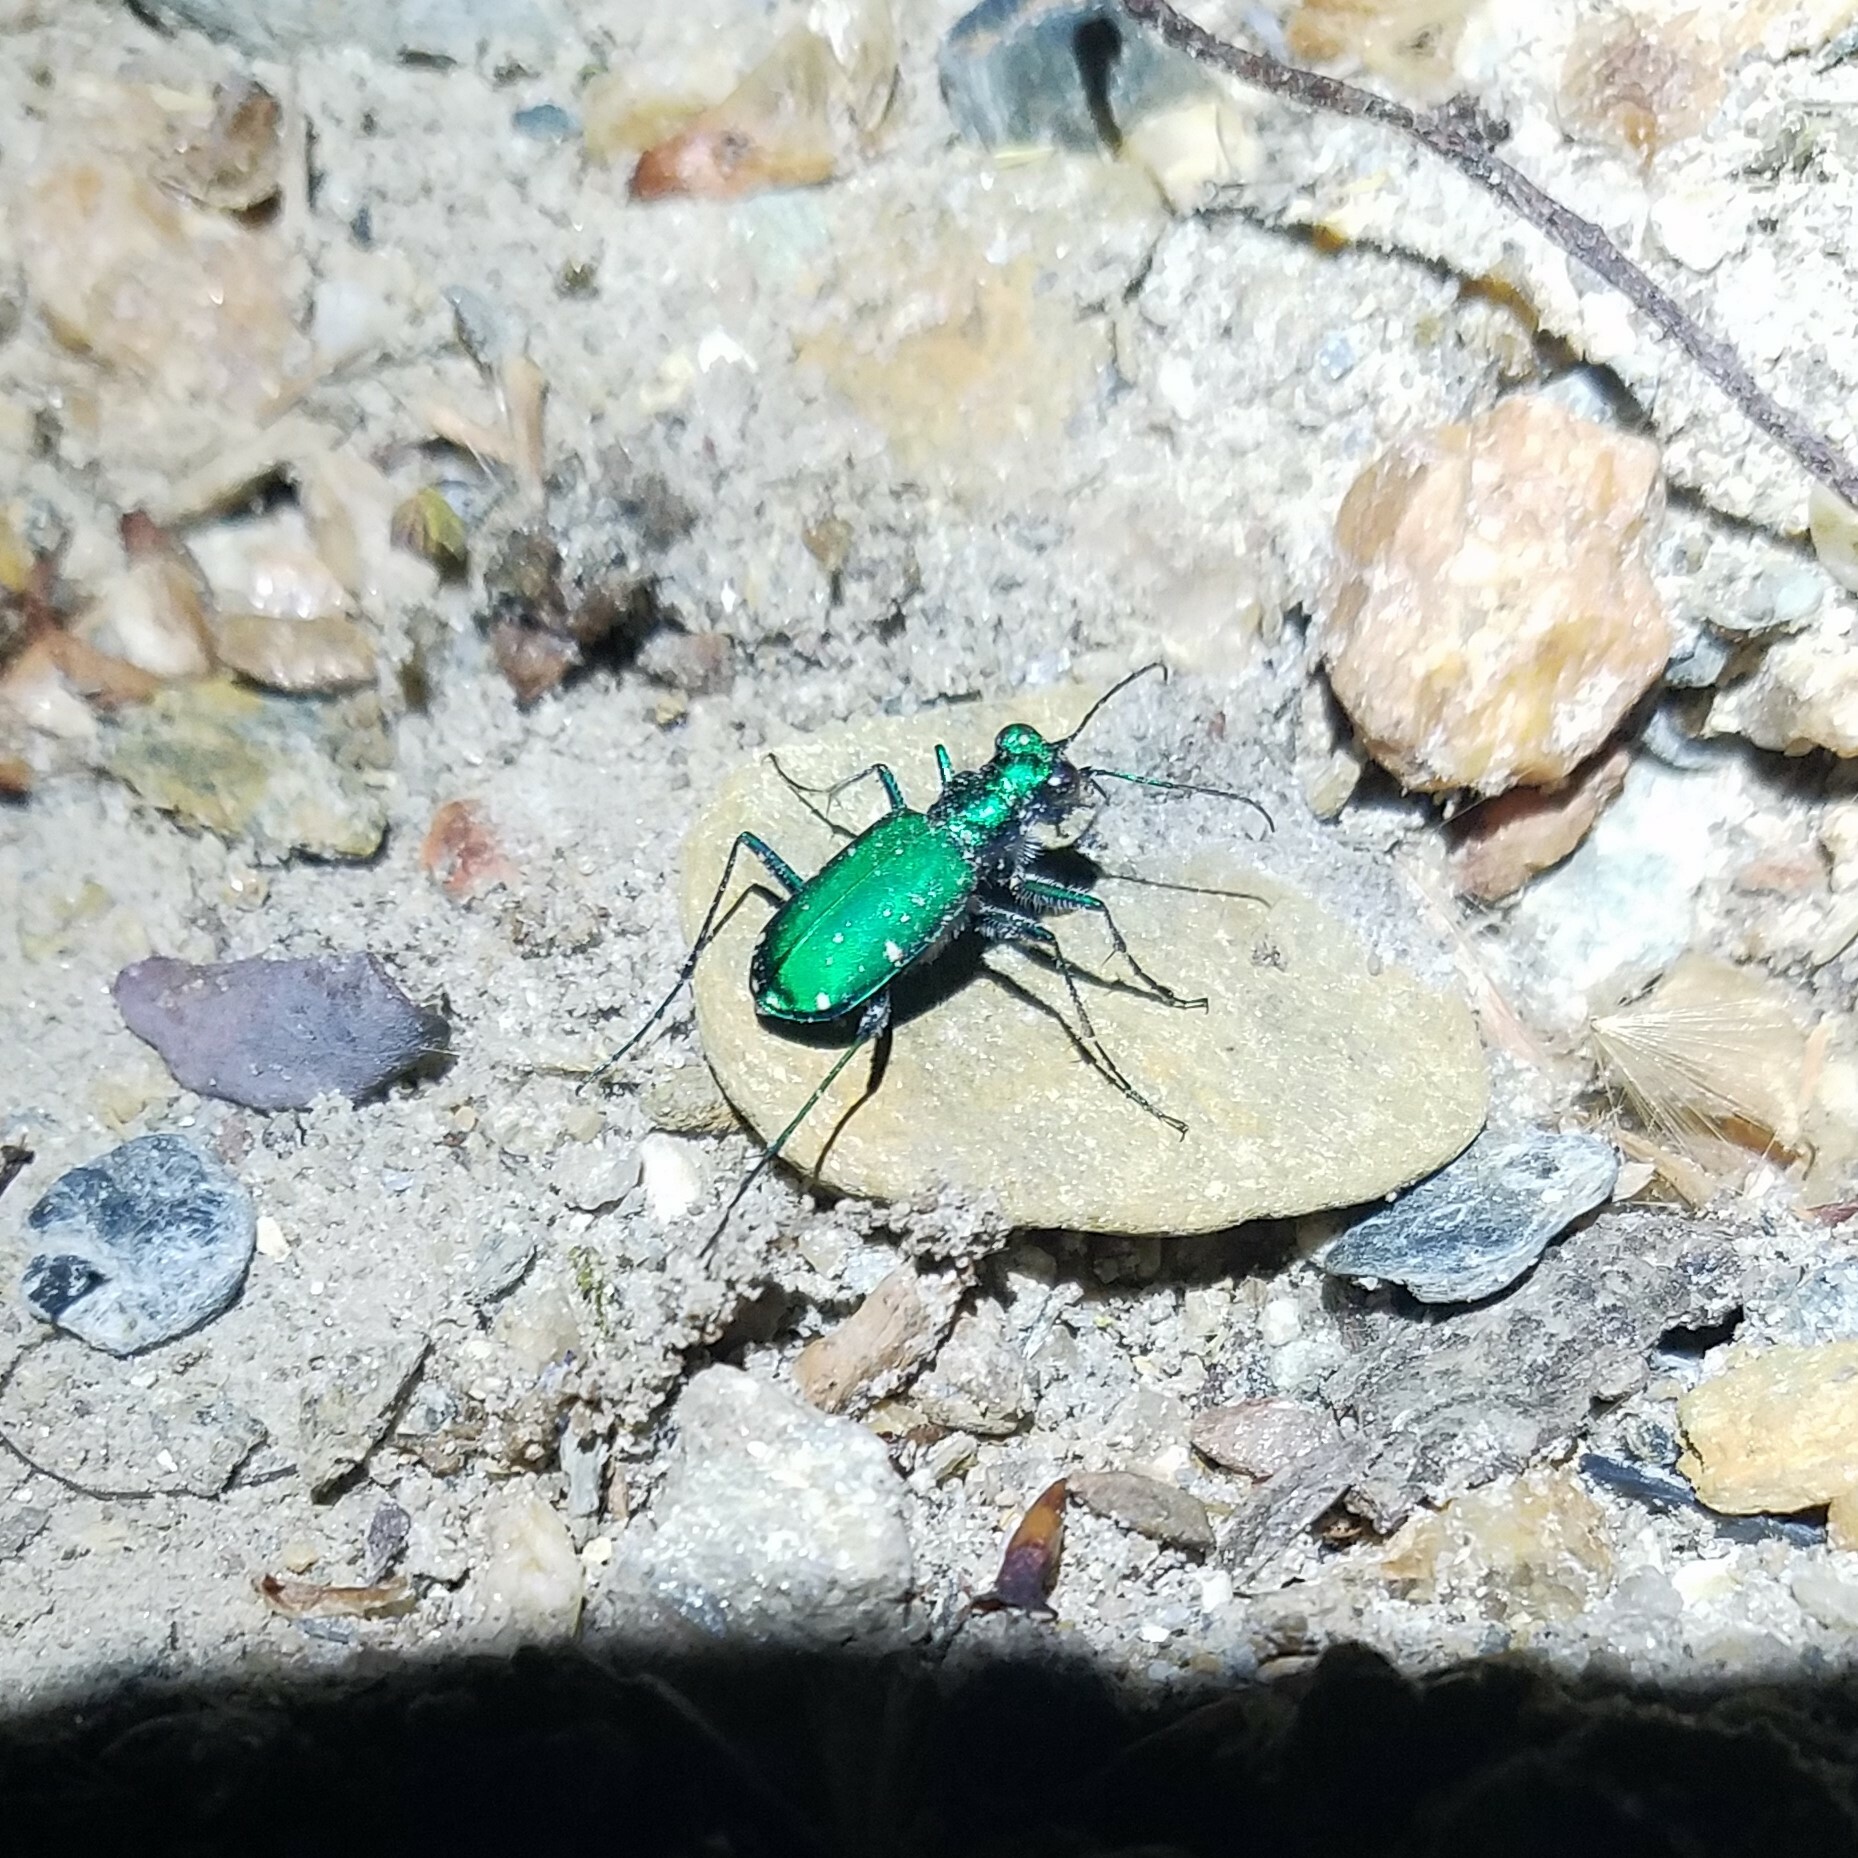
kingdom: Animalia
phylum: Arthropoda
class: Insecta
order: Coleoptera
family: Carabidae
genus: Cicindela
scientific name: Cicindela sexguttata
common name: Six-spotted tiger beetle
